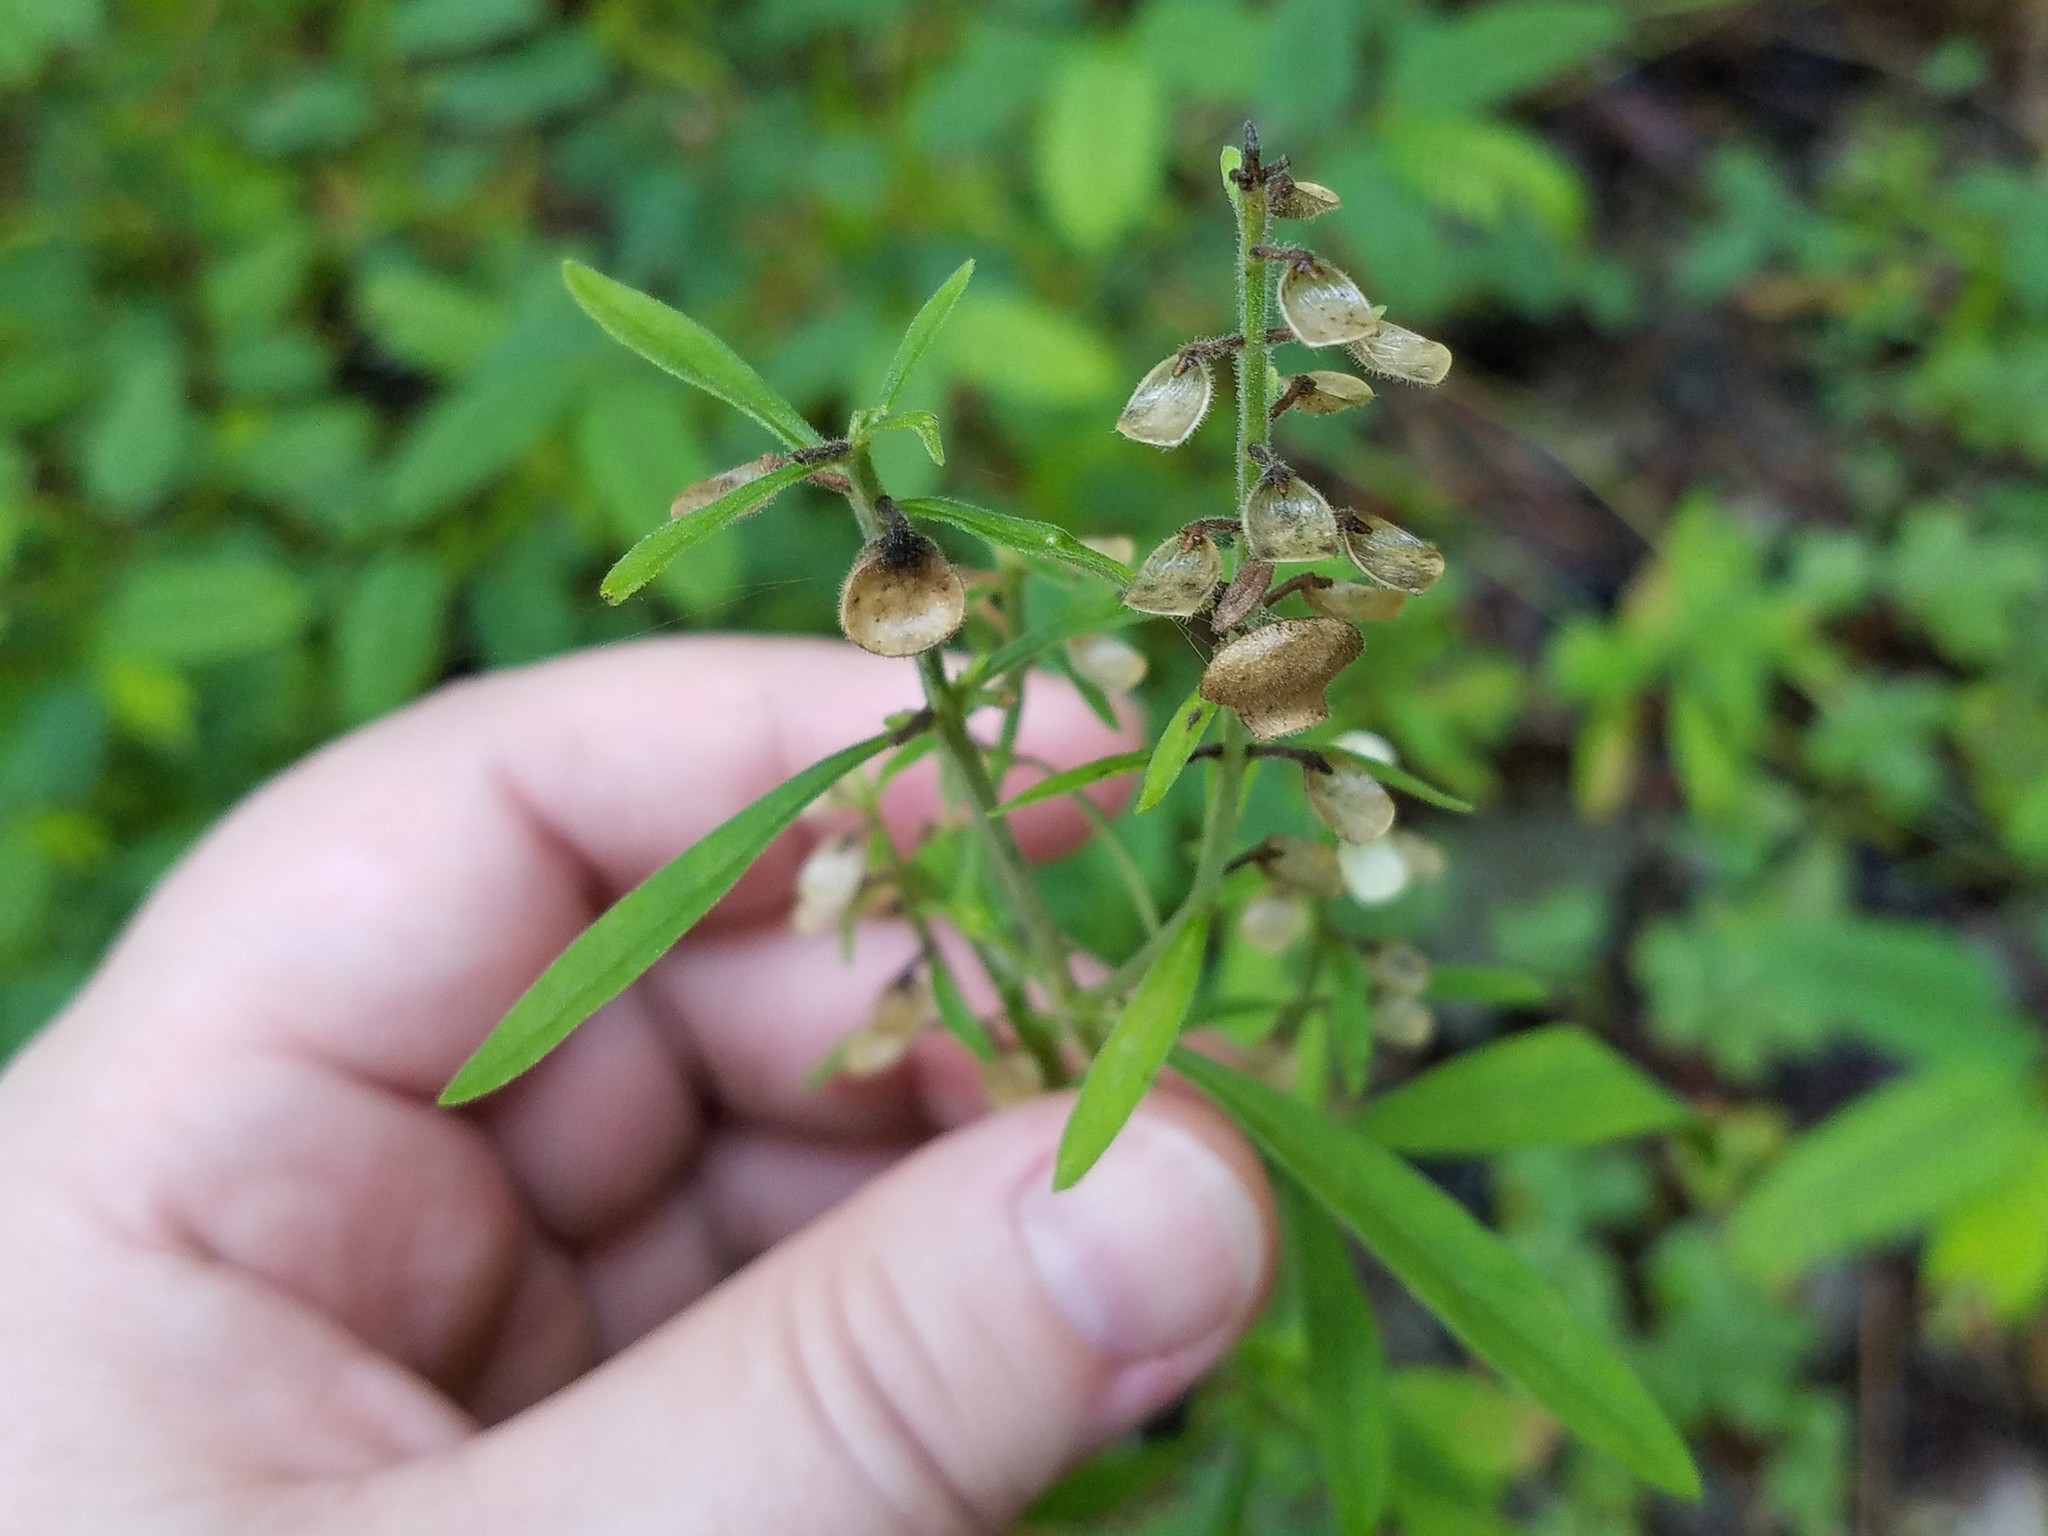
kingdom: Plantae
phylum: Tracheophyta
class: Magnoliopsida
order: Lamiales
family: Lamiaceae
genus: Scutellaria
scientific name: Scutellaria integrifolia
